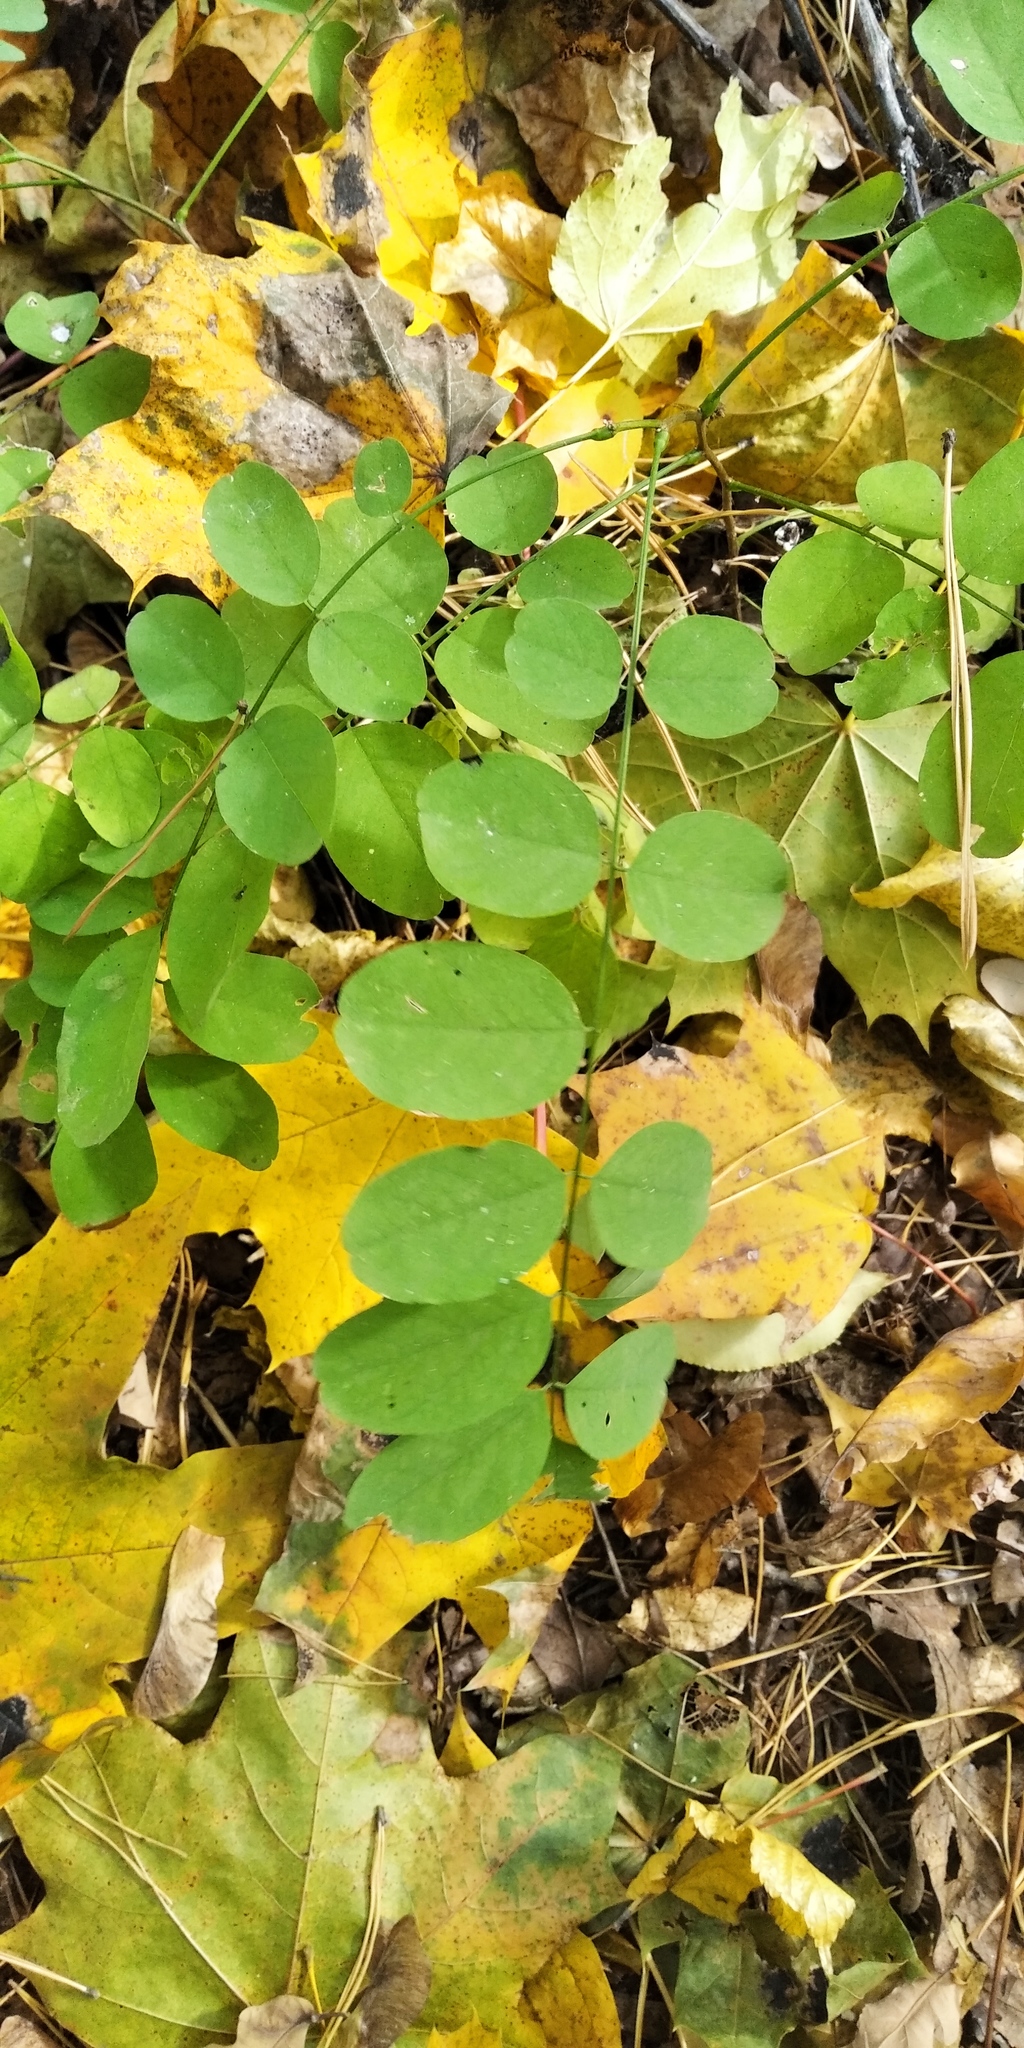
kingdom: Plantae
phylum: Tracheophyta
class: Magnoliopsida
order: Fabales
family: Fabaceae
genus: Robinia
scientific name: Robinia pseudoacacia
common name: Black locust
